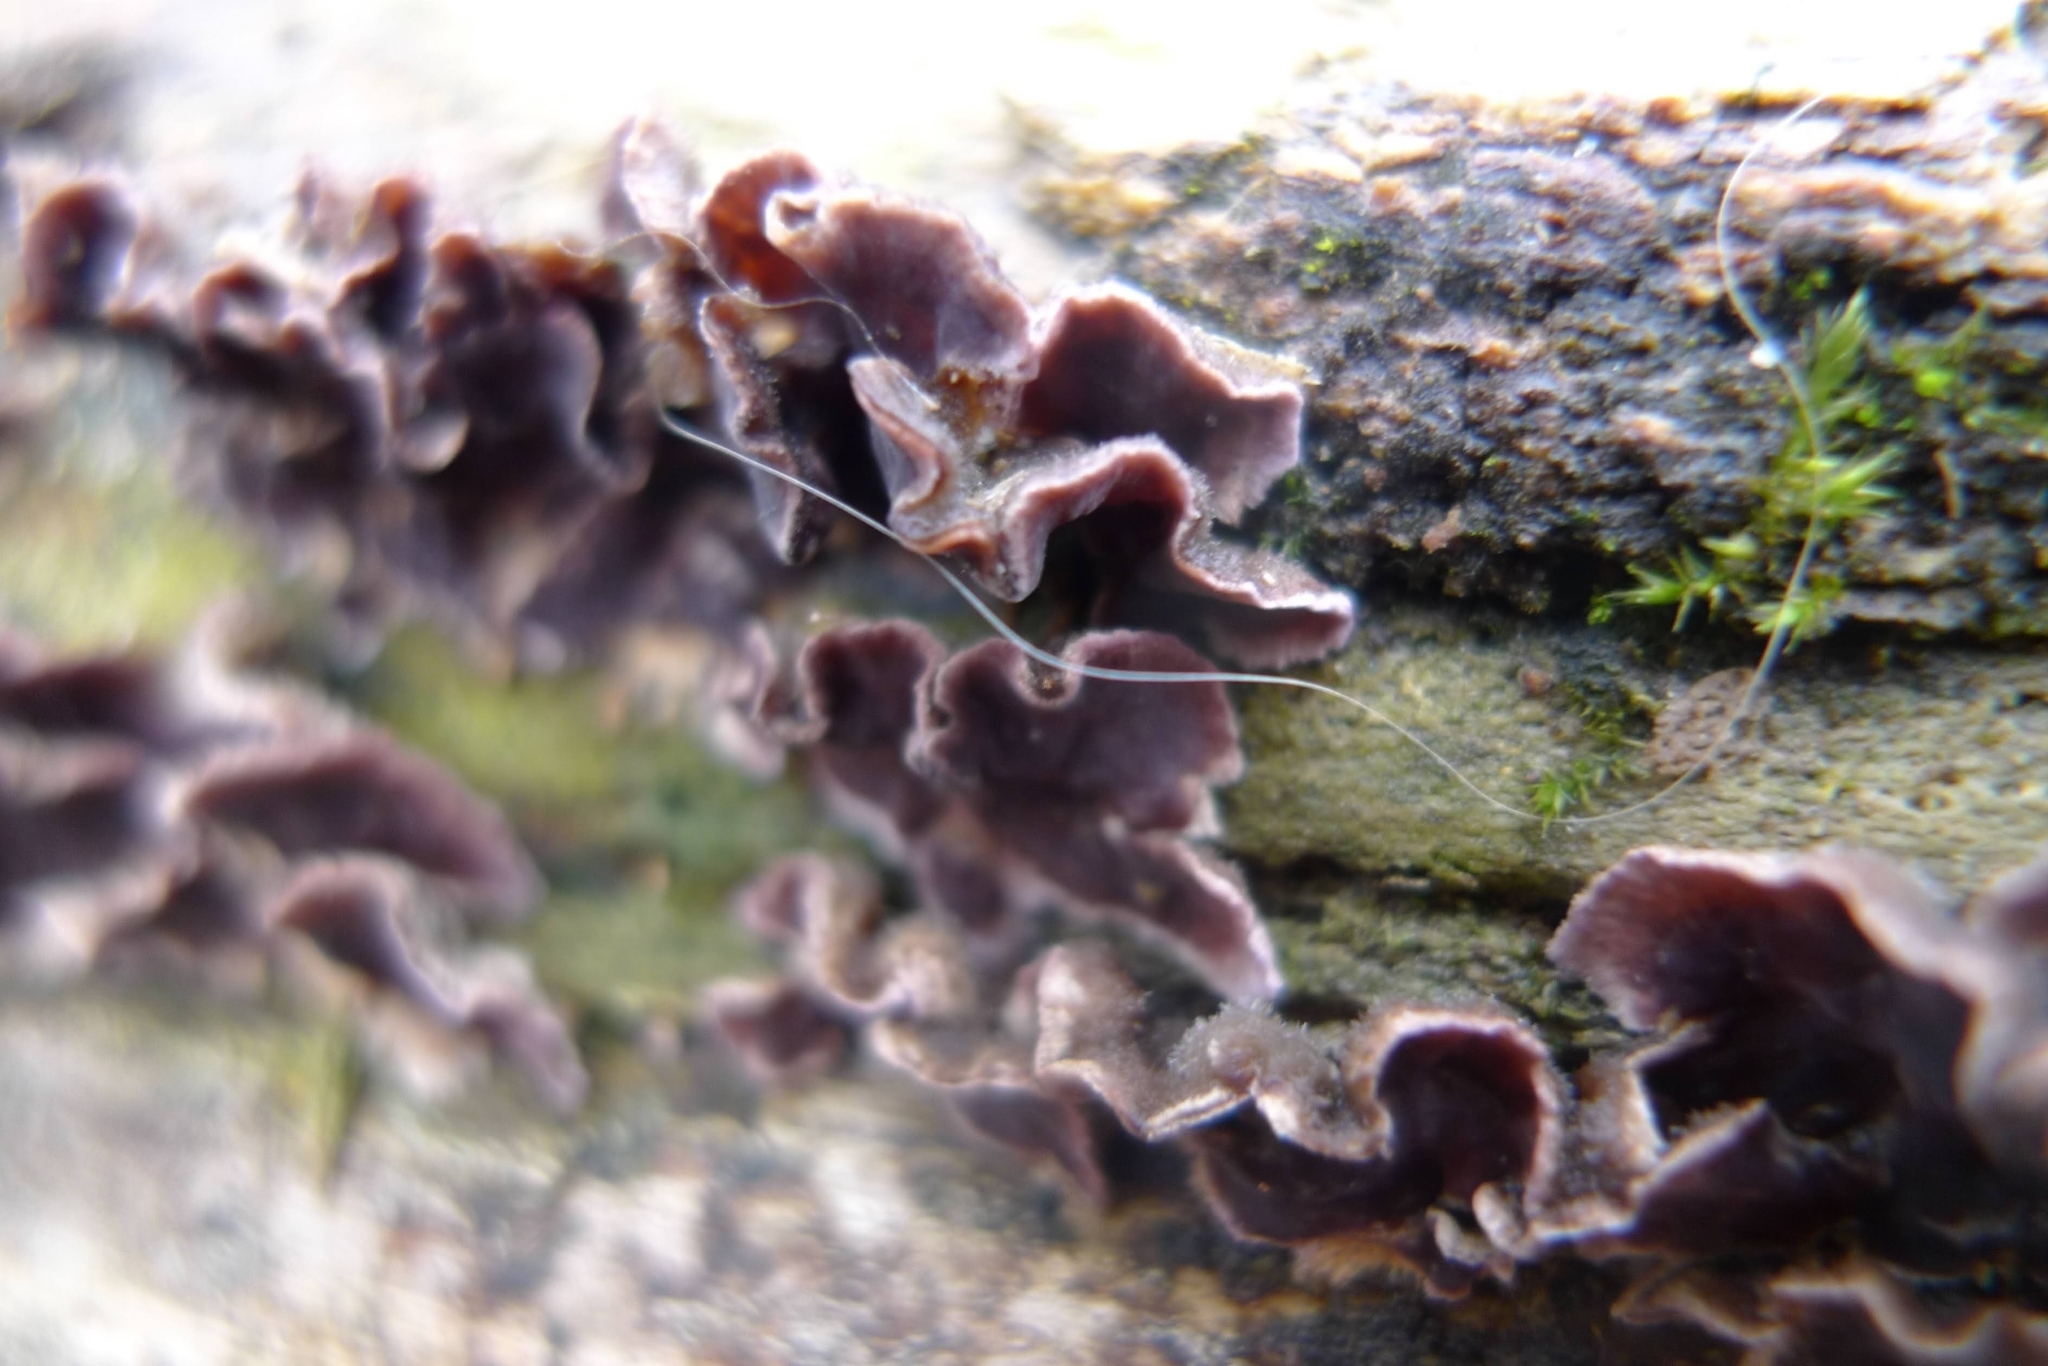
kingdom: Fungi
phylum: Basidiomycota
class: Agaricomycetes
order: Agaricales
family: Cyphellaceae
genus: Chondrostereum
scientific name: Chondrostereum purpureum
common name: Silver leaf disease
